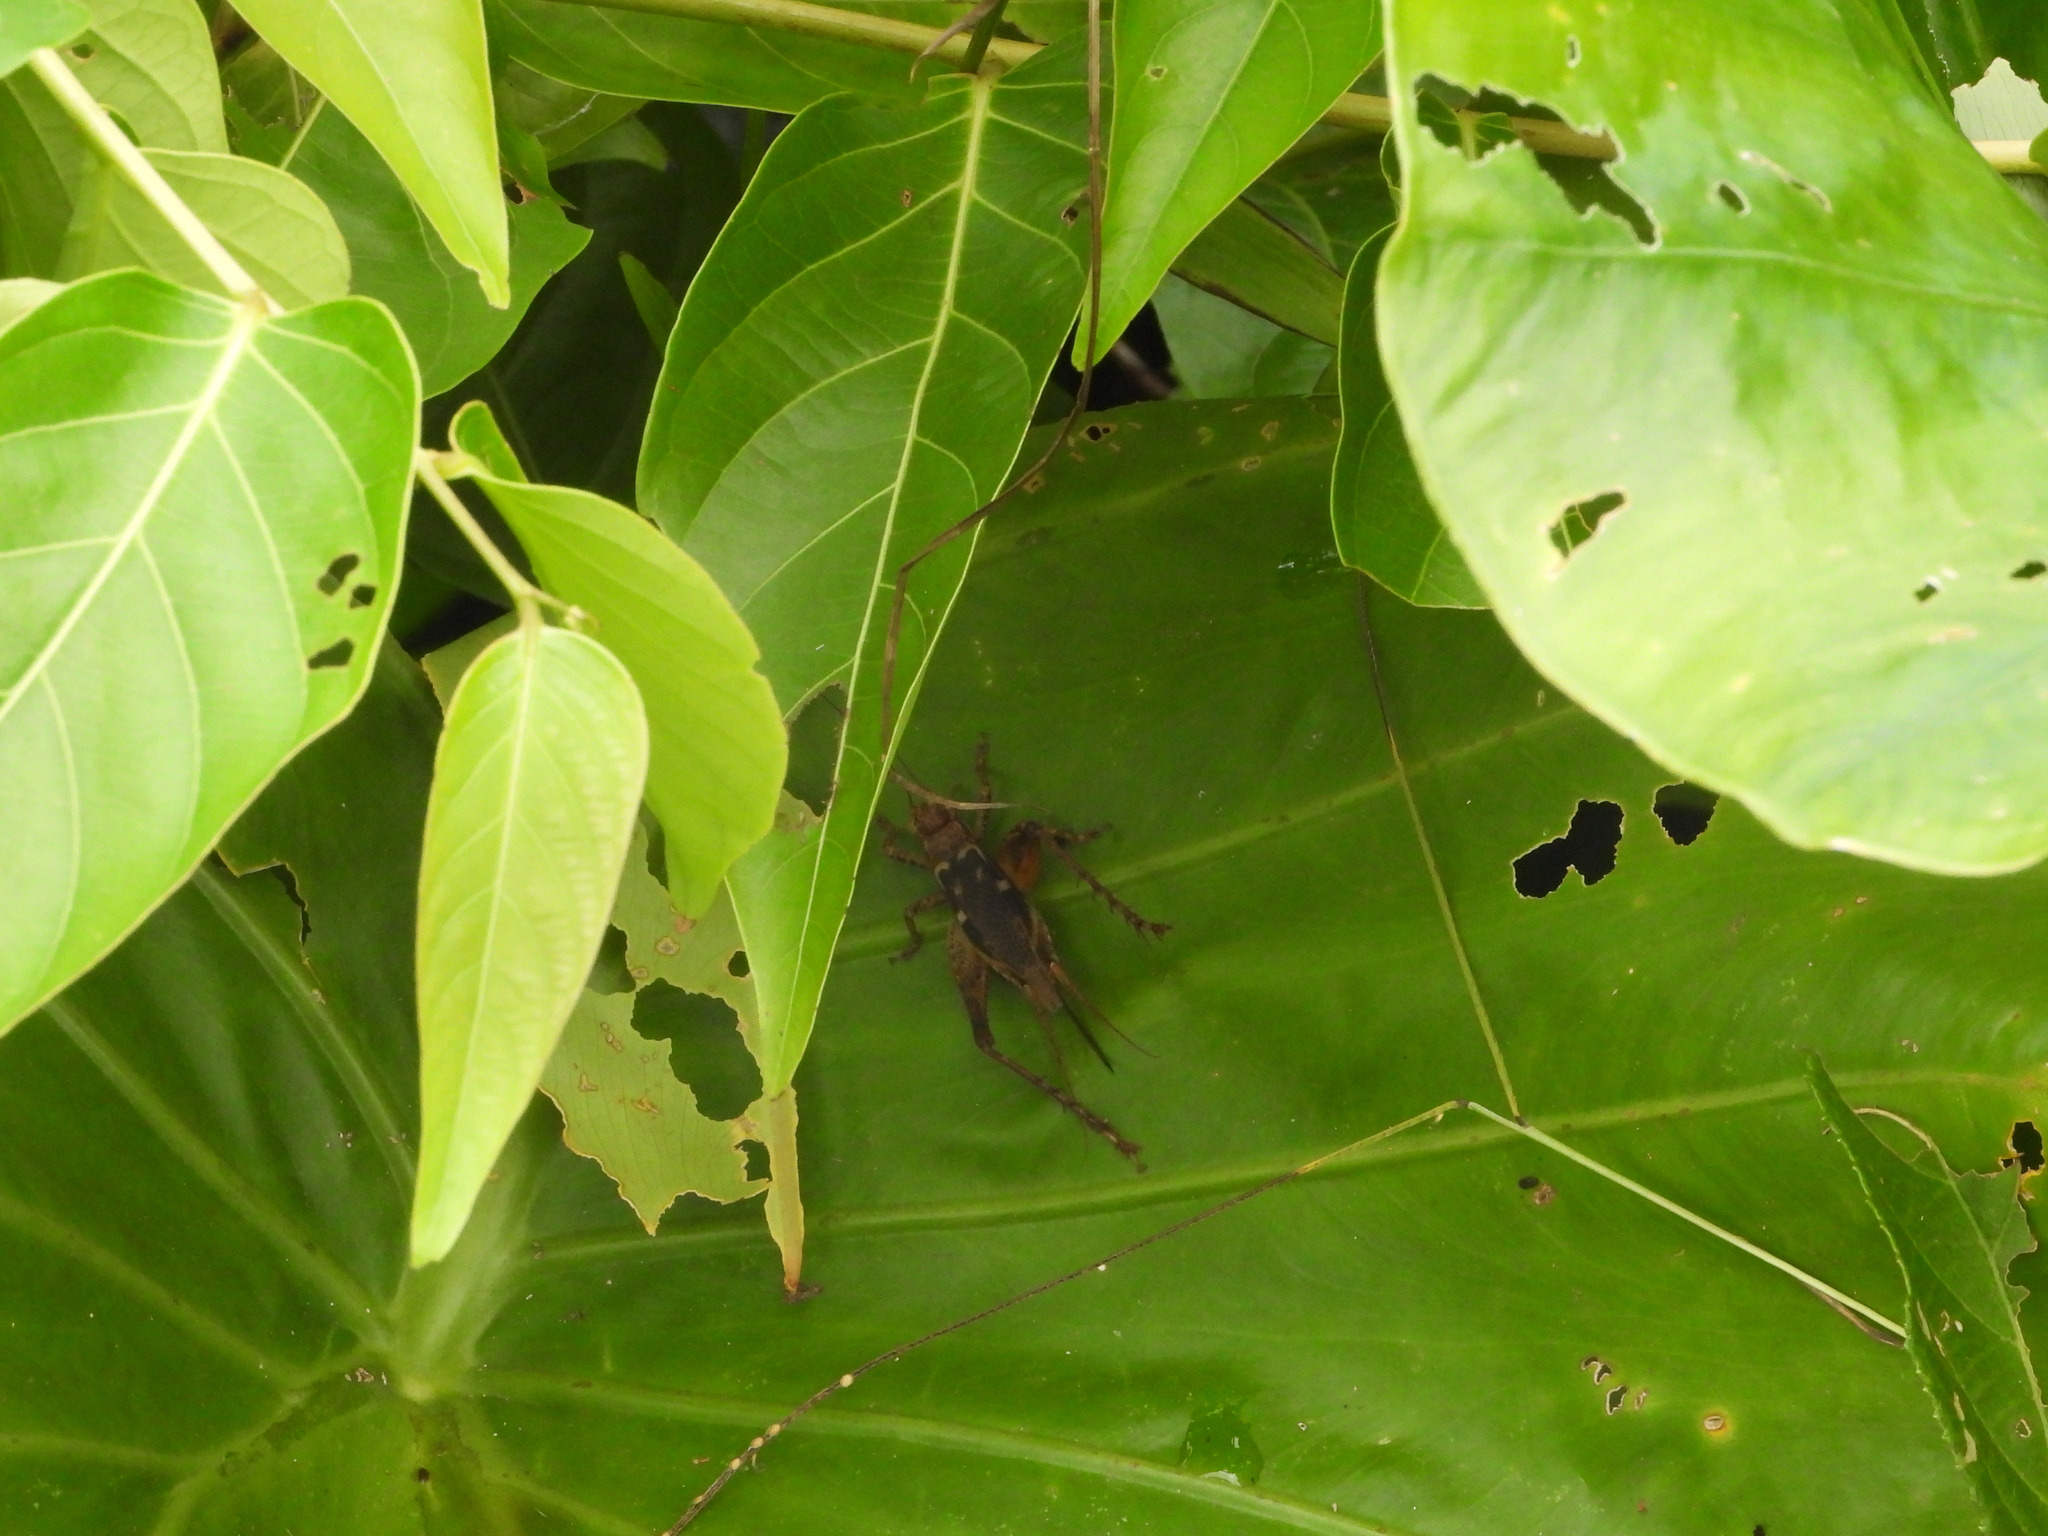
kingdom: Animalia
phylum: Arthropoda
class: Insecta
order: Orthoptera
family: Gryllidae
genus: Cardiodactylus
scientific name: Cardiodactylus guttulus
